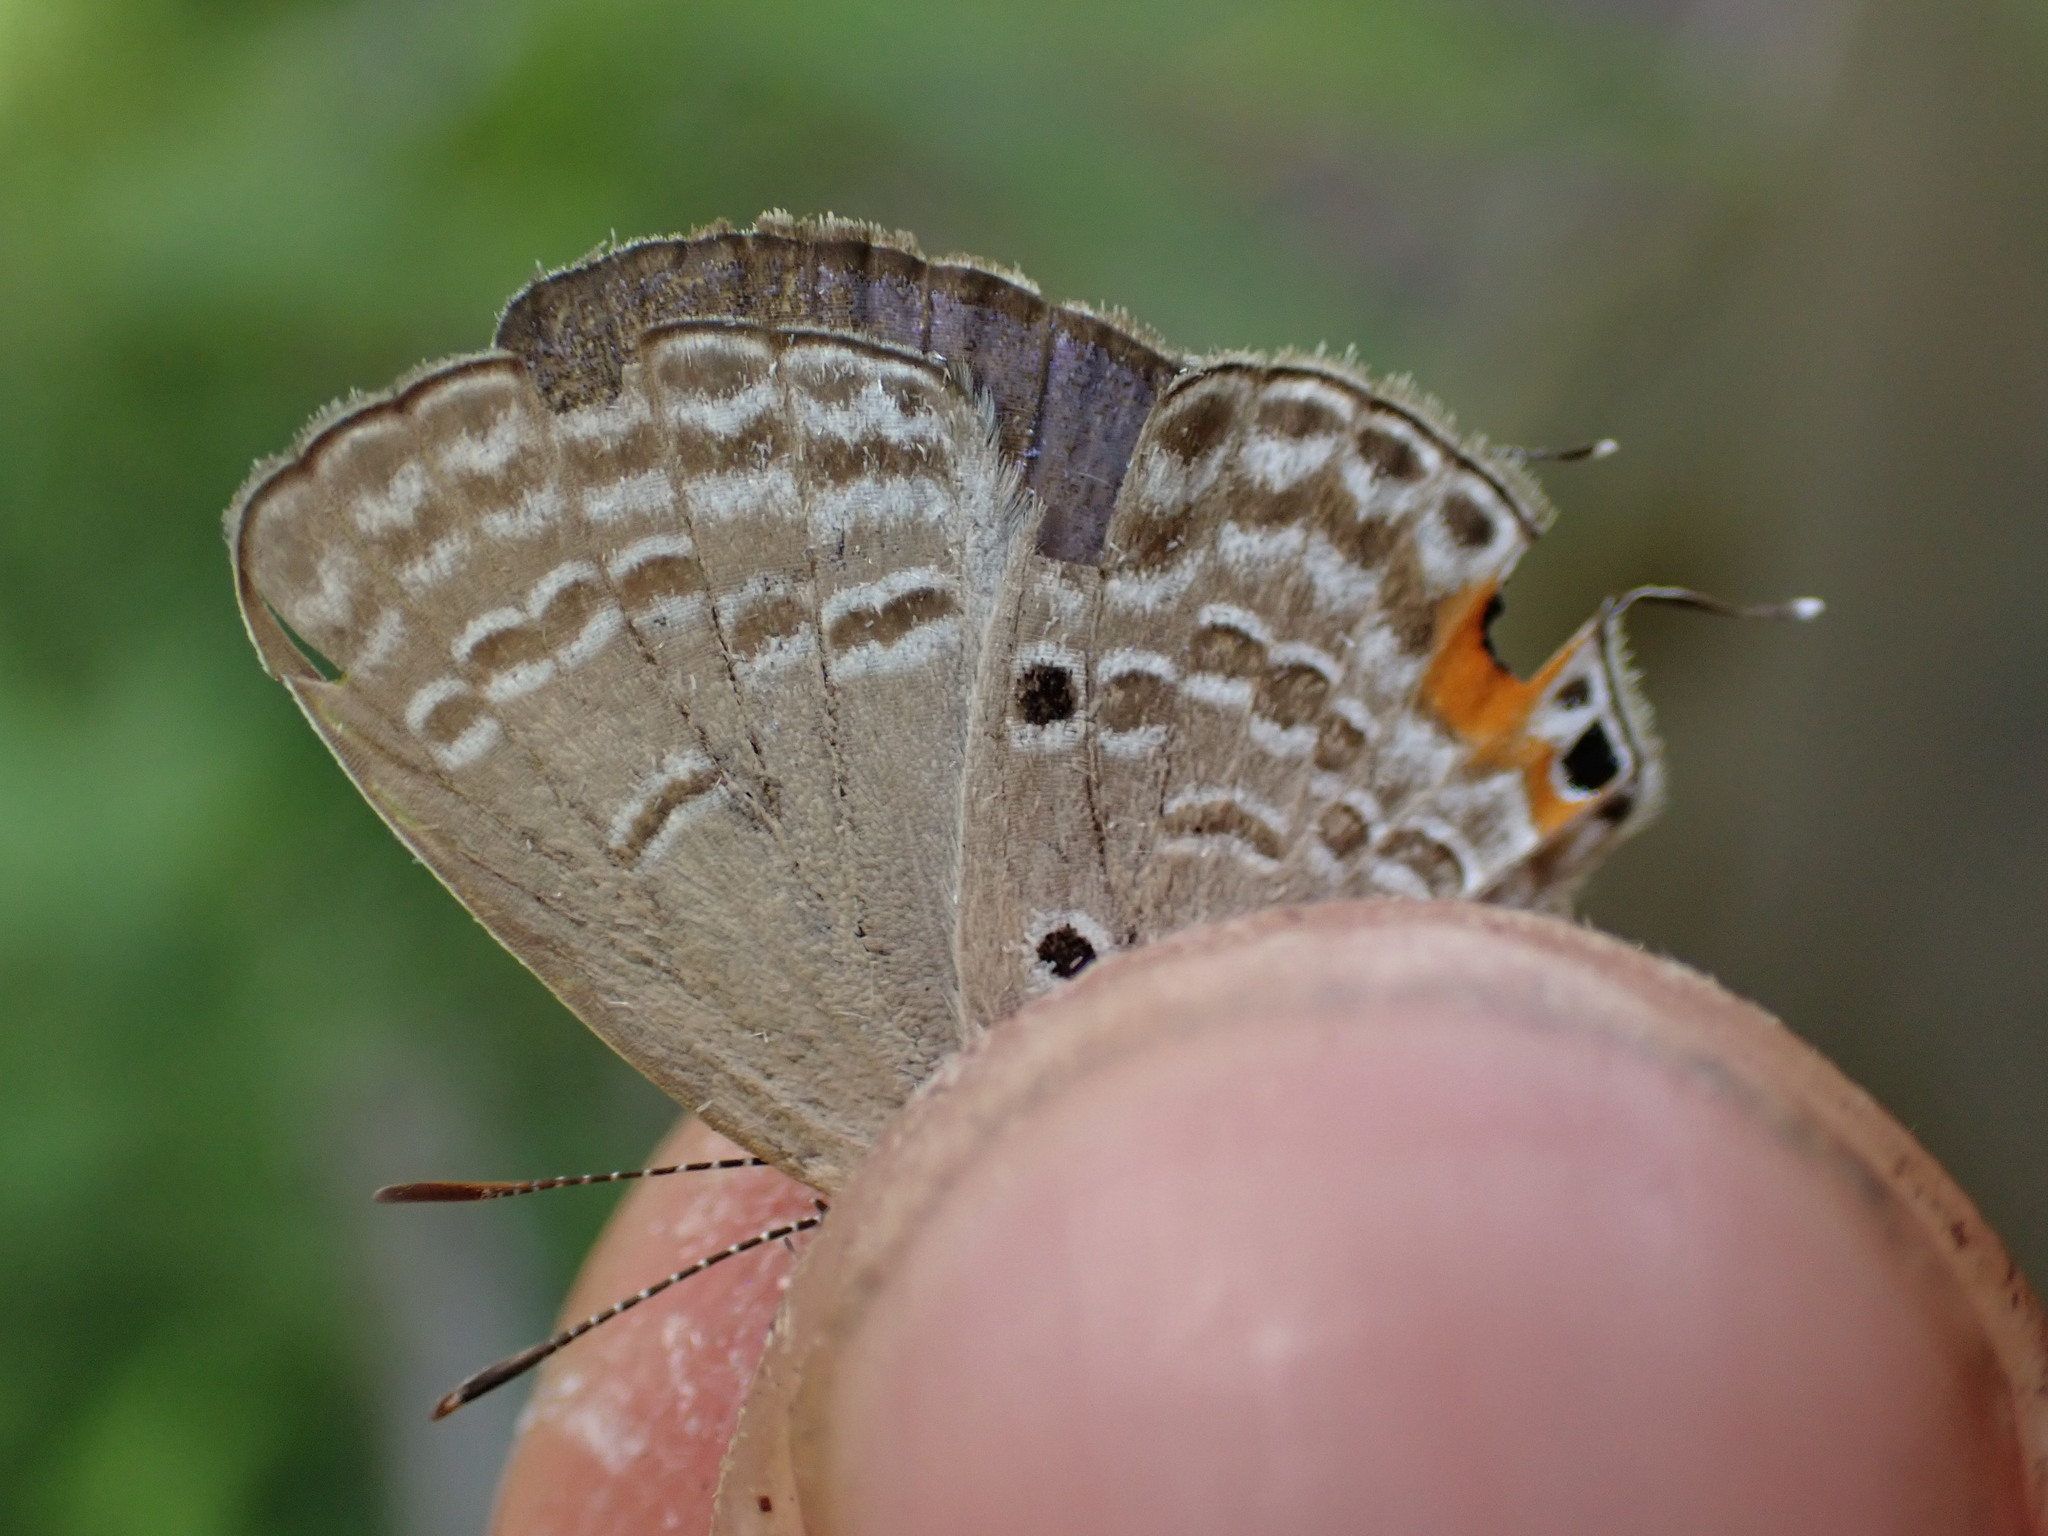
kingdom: Animalia
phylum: Arthropoda
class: Insecta
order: Lepidoptera
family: Lycaenidae
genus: Luthrodes
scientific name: Luthrodes pandava
